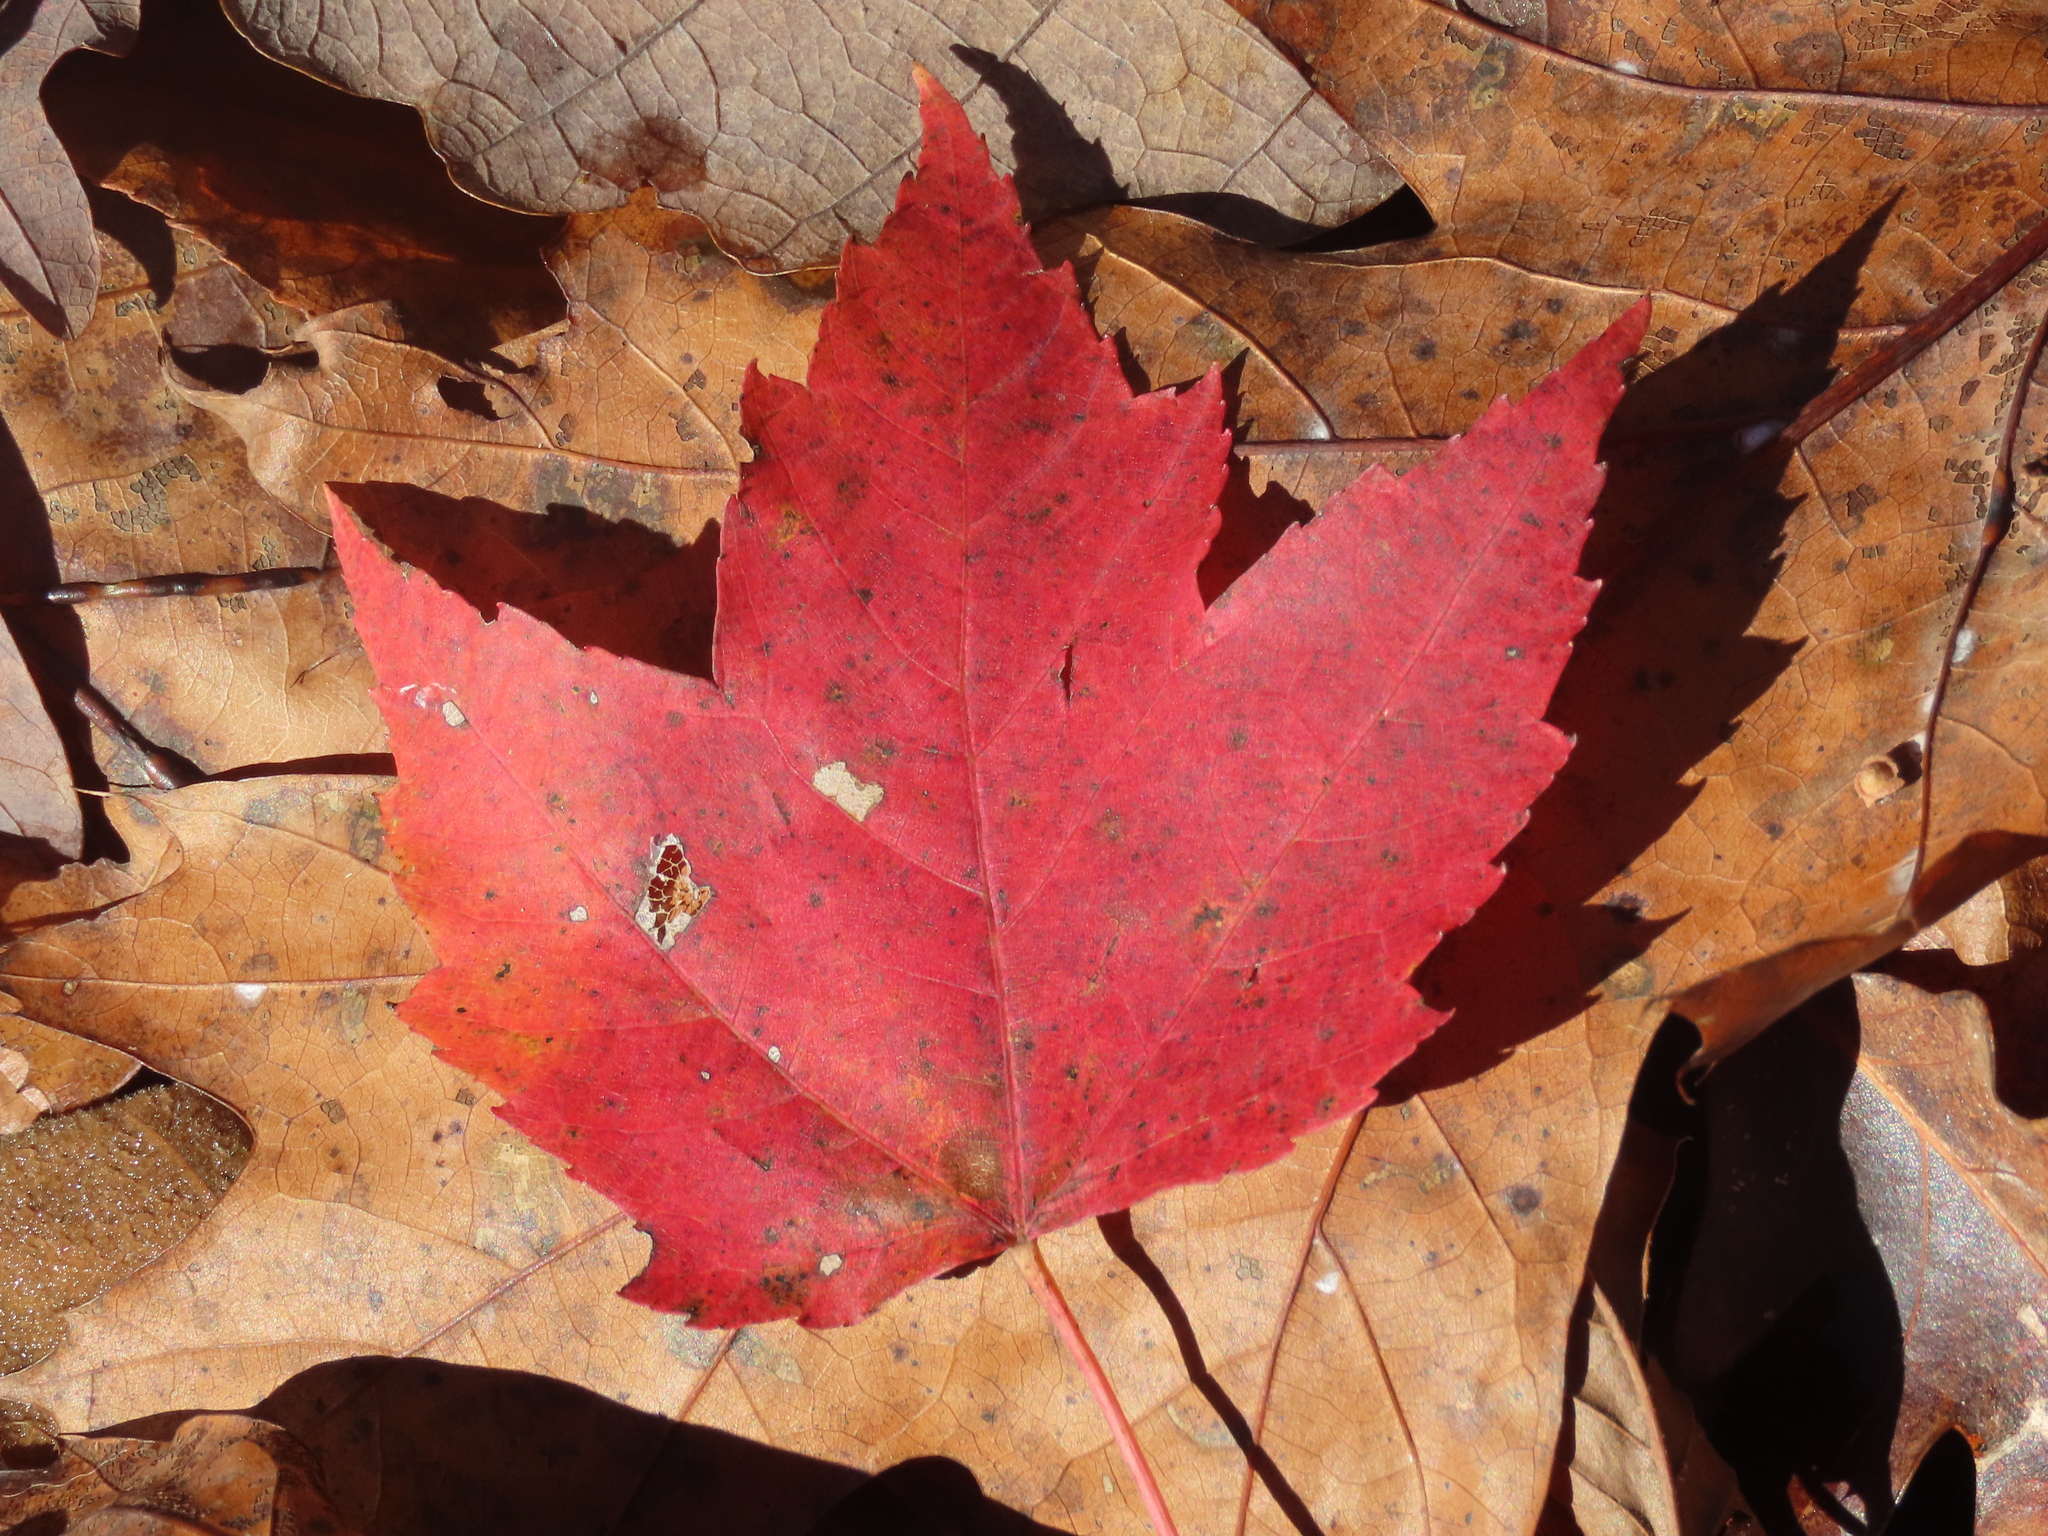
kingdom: Plantae
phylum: Tracheophyta
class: Magnoliopsida
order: Sapindales
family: Sapindaceae
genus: Acer
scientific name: Acer rubrum
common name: Red maple
